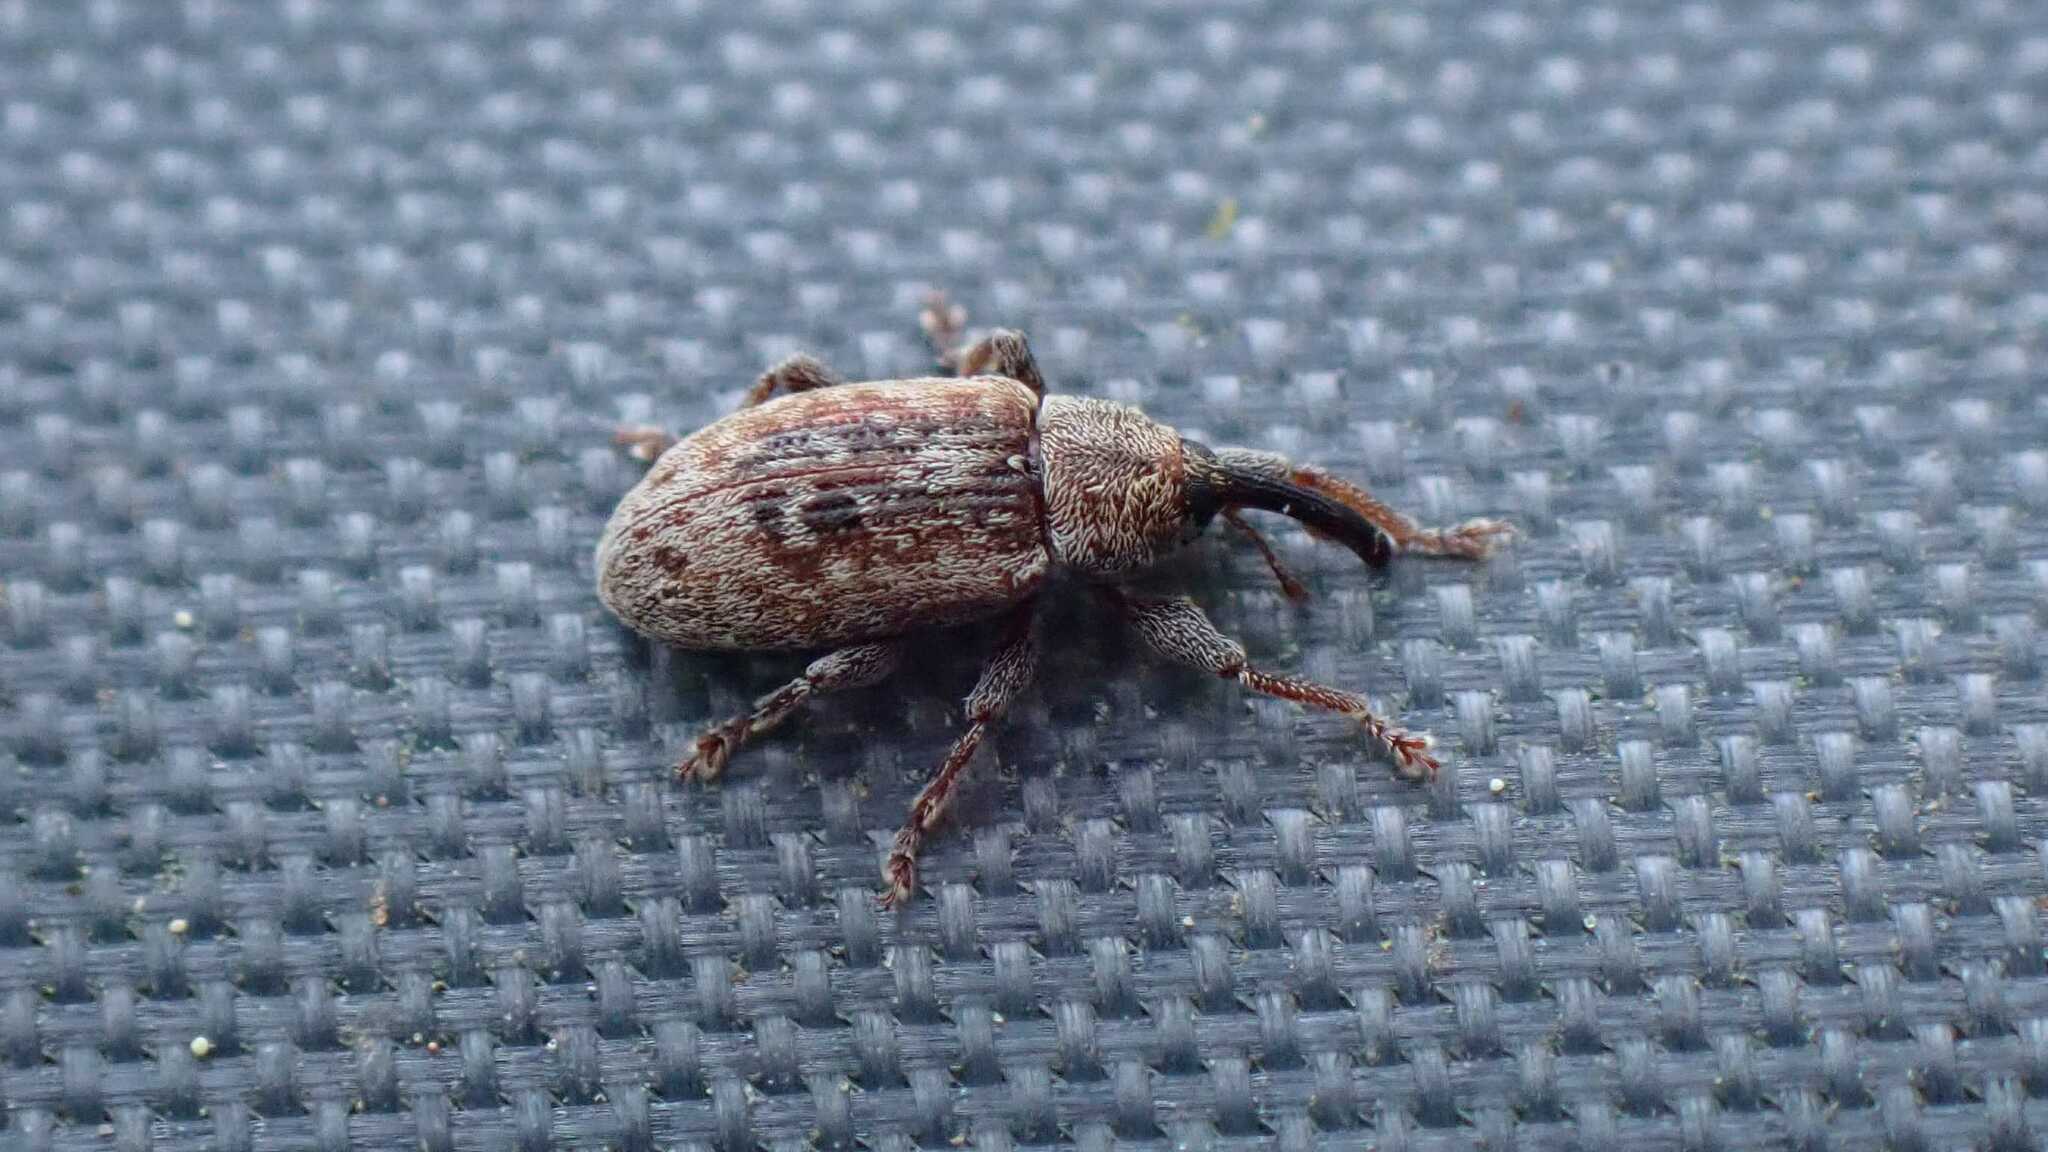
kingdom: Animalia
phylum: Arthropoda
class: Insecta
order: Coleoptera
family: Curculionidae
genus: Dorytomus
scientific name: Dorytomus melanophthalmus
